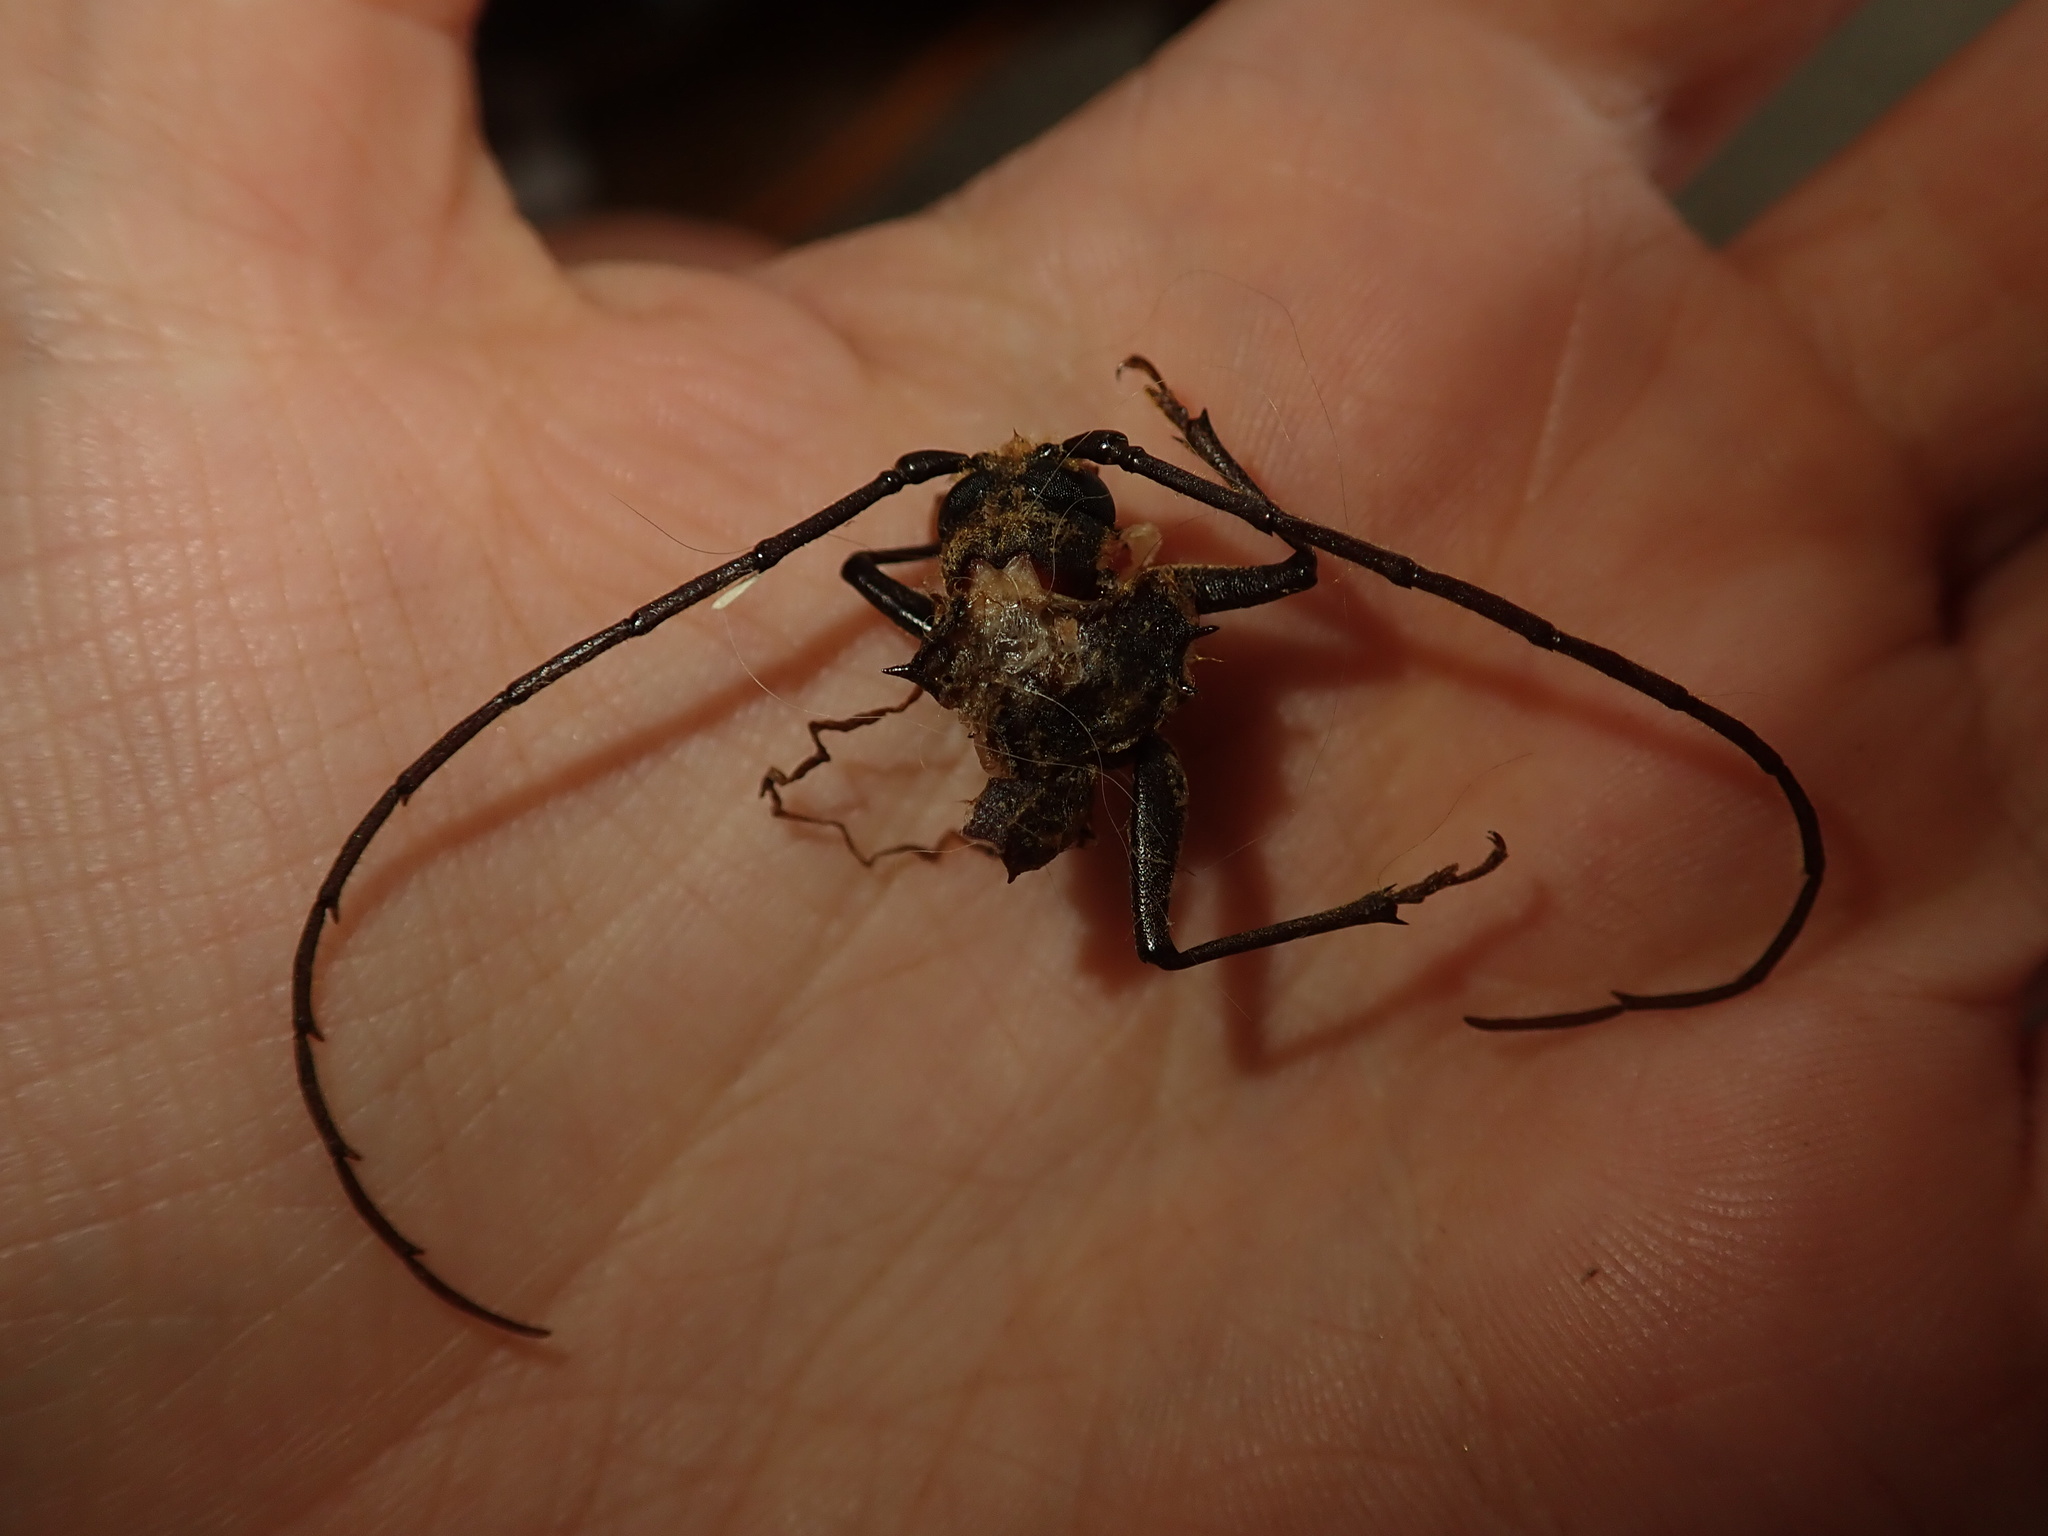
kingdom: Animalia
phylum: Arthropoda
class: Insecta
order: Coleoptera
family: Cerambycidae
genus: Prionoplus
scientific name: Prionoplus reticularis
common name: Huhu beetle
